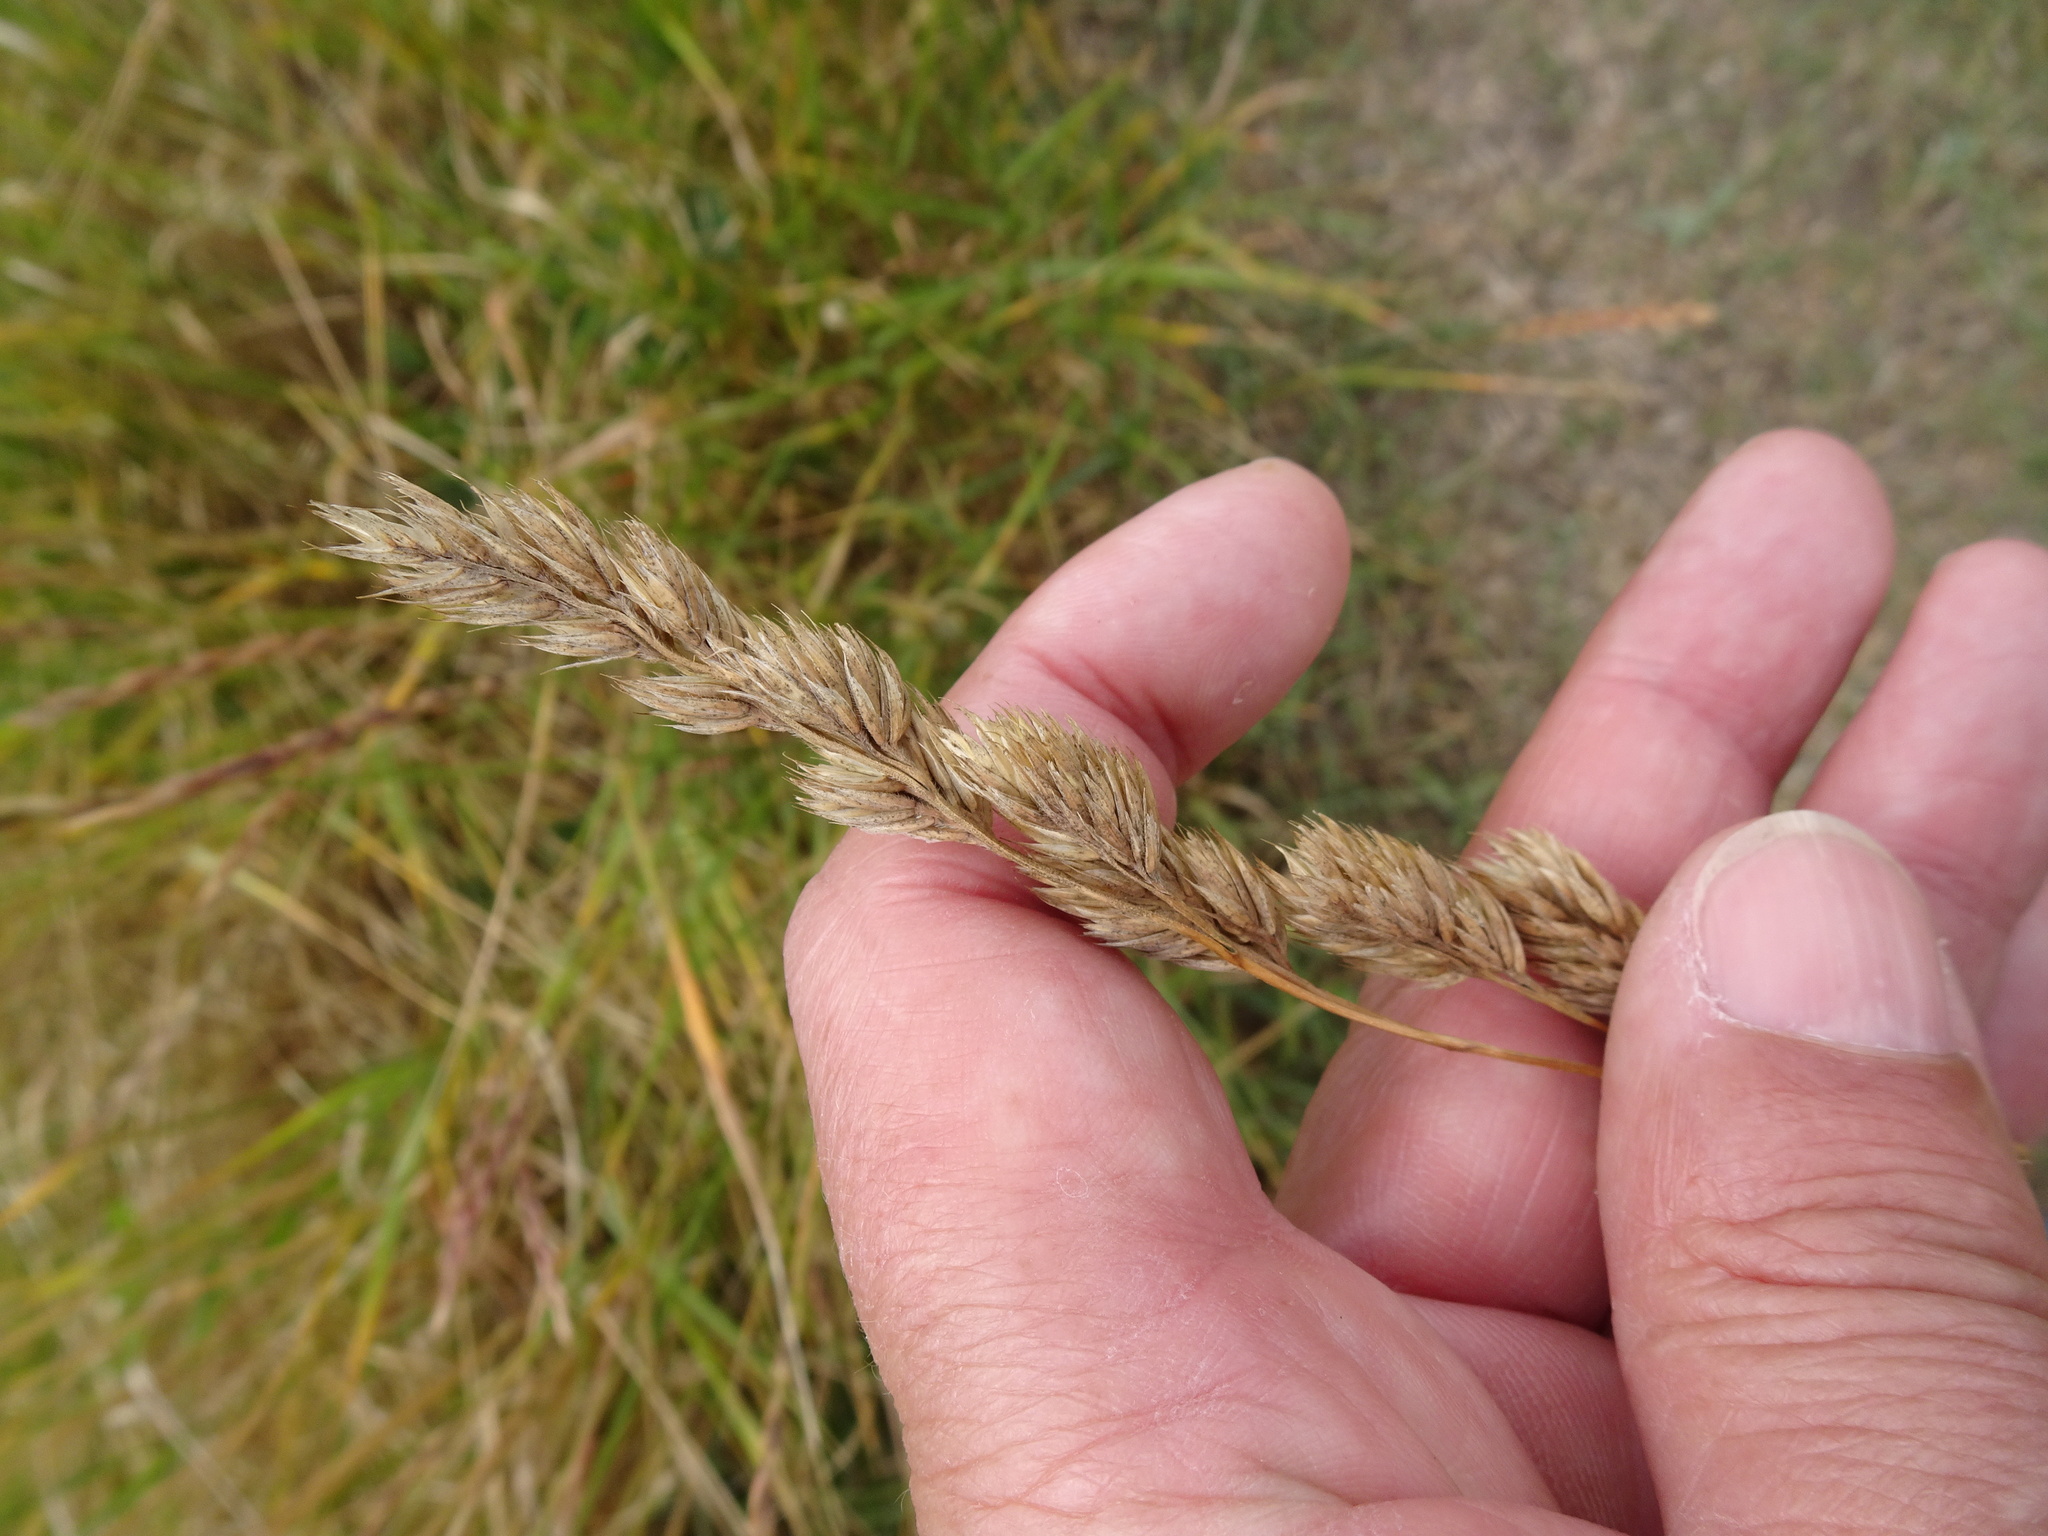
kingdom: Plantae
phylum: Tracheophyta
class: Liliopsida
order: Poales
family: Poaceae
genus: Dactylis
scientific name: Dactylis glomerata
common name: Orchardgrass
